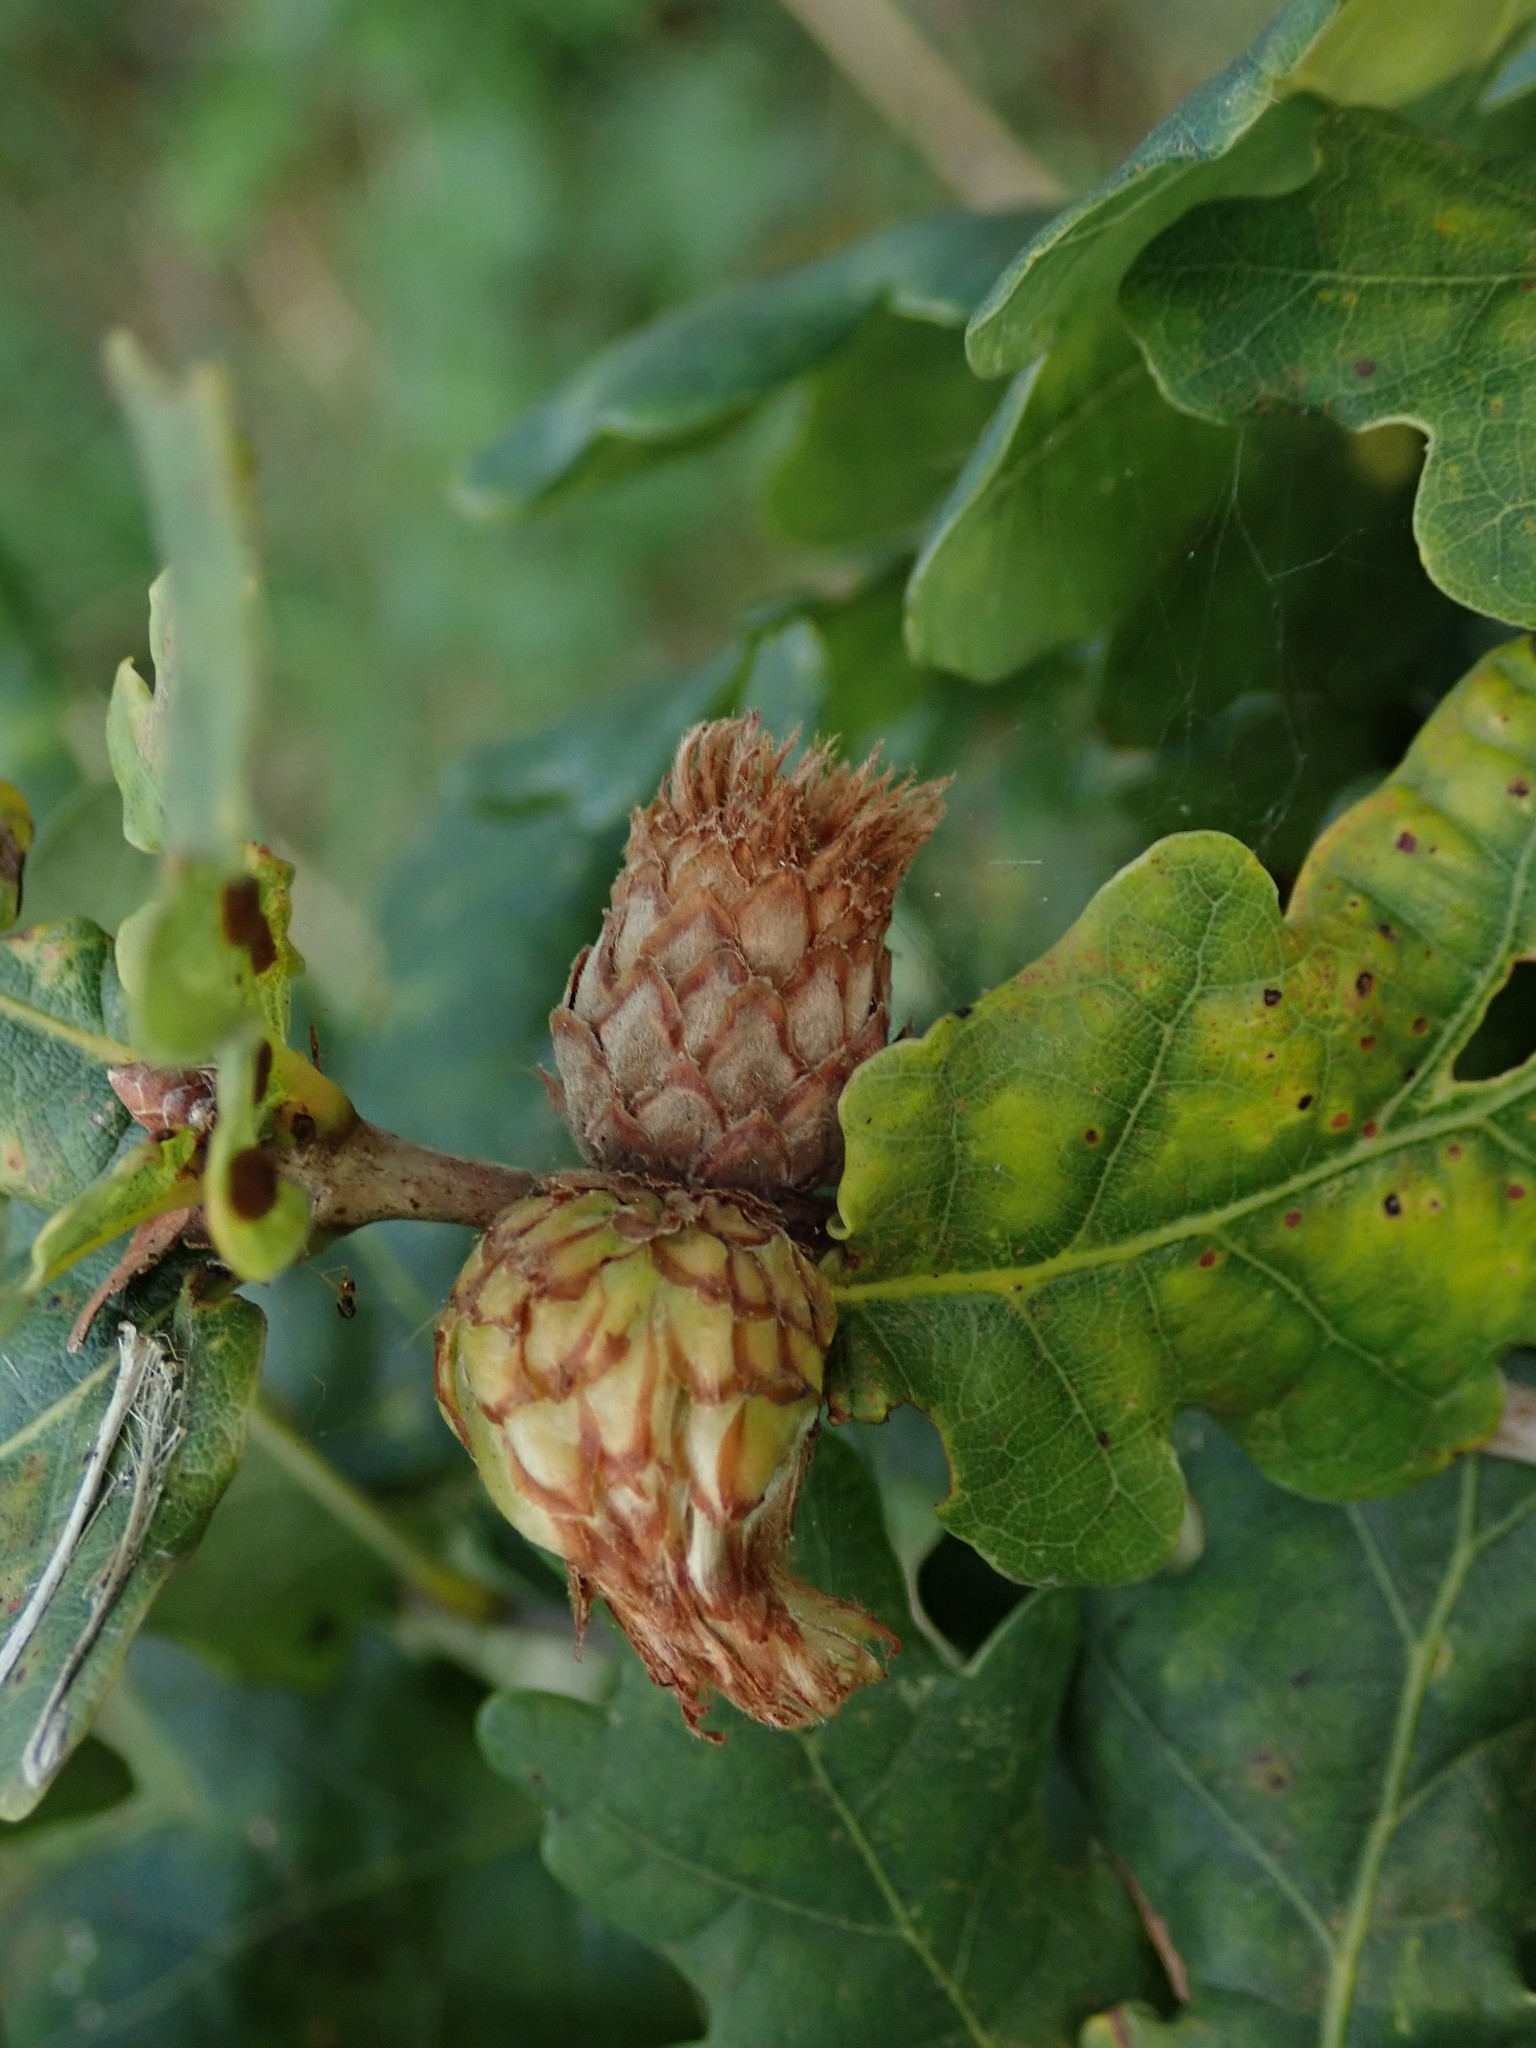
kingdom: Animalia
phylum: Arthropoda
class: Insecta
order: Hymenoptera
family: Cynipidae
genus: Andricus
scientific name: Andricus foecundatrix
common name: Artichoke gall
